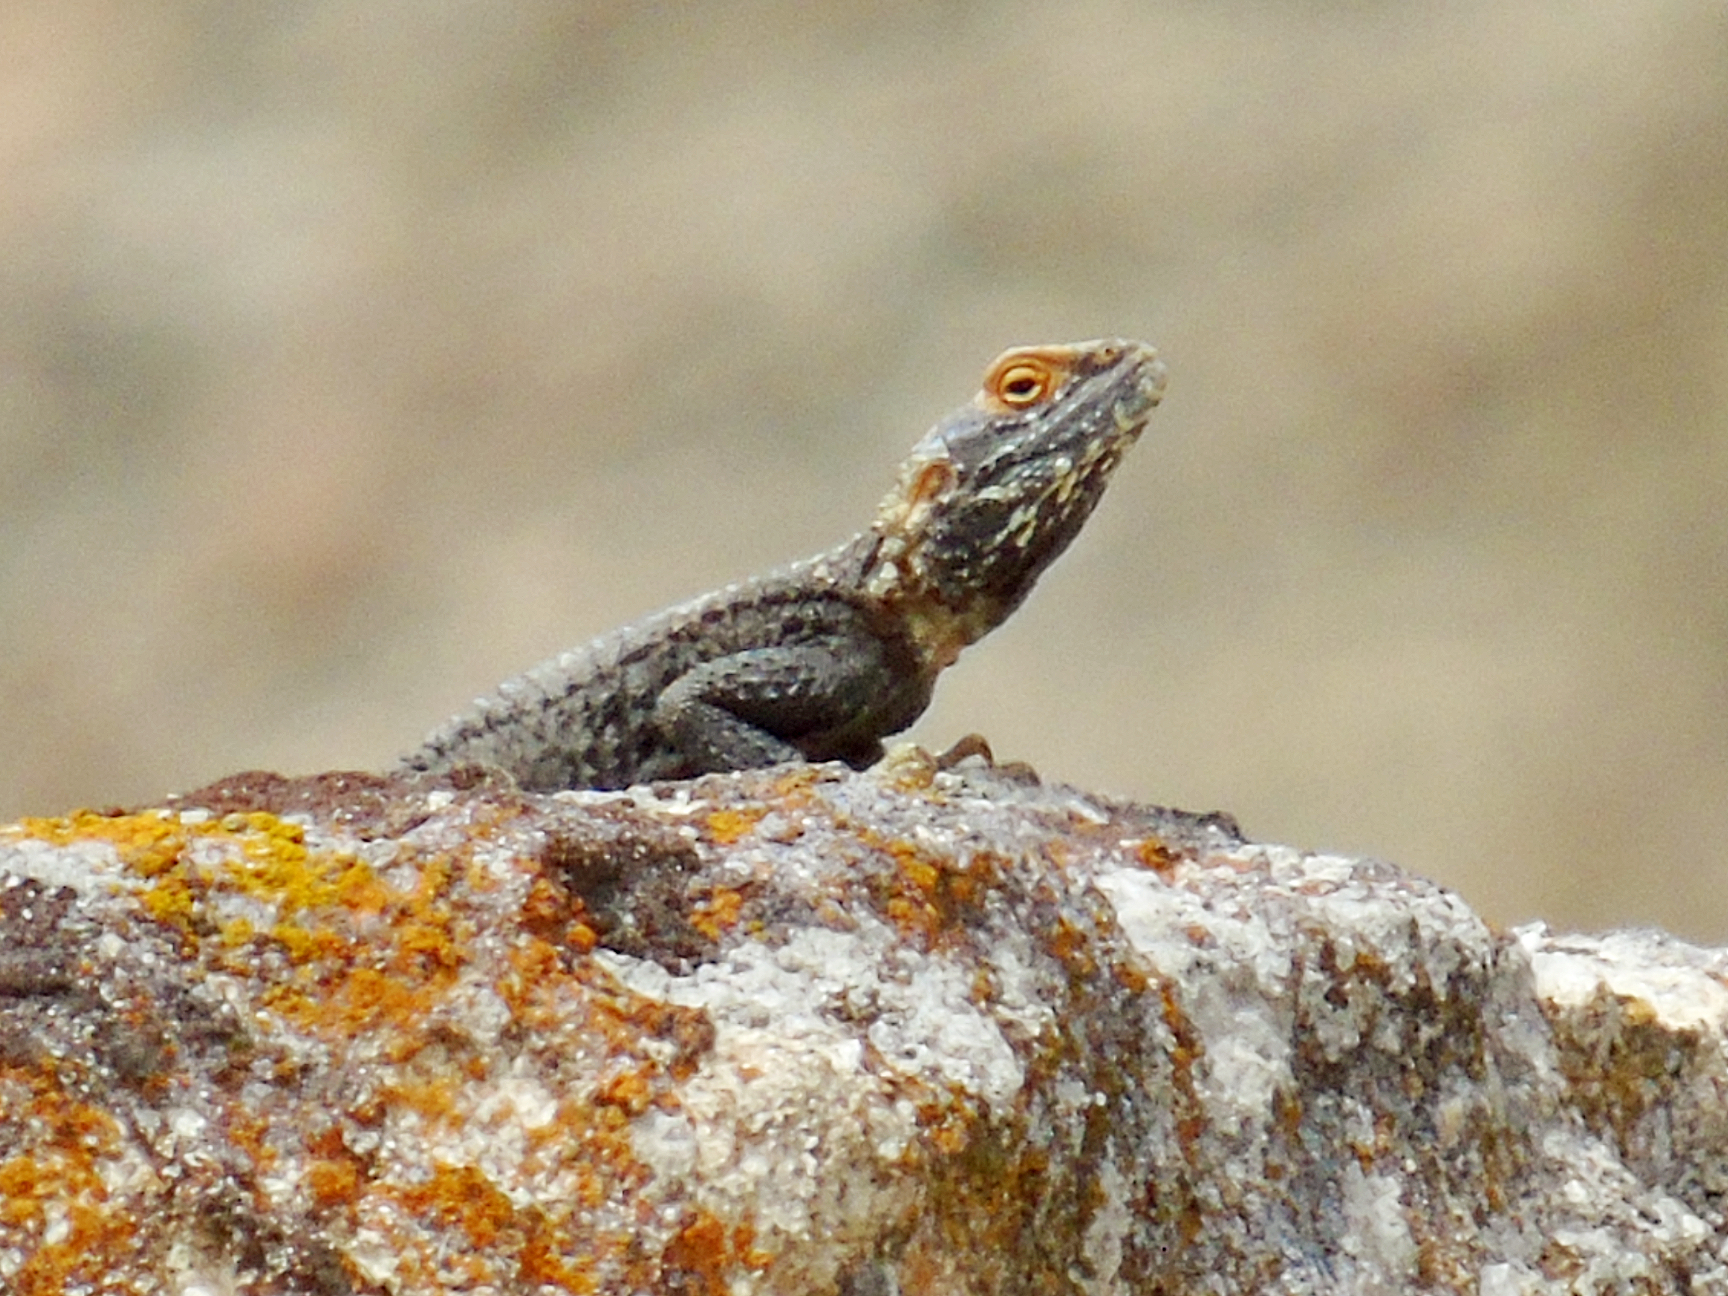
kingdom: Animalia
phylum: Chordata
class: Squamata
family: Agamidae
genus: Stellagama
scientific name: Stellagama stellio
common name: Starred agama
